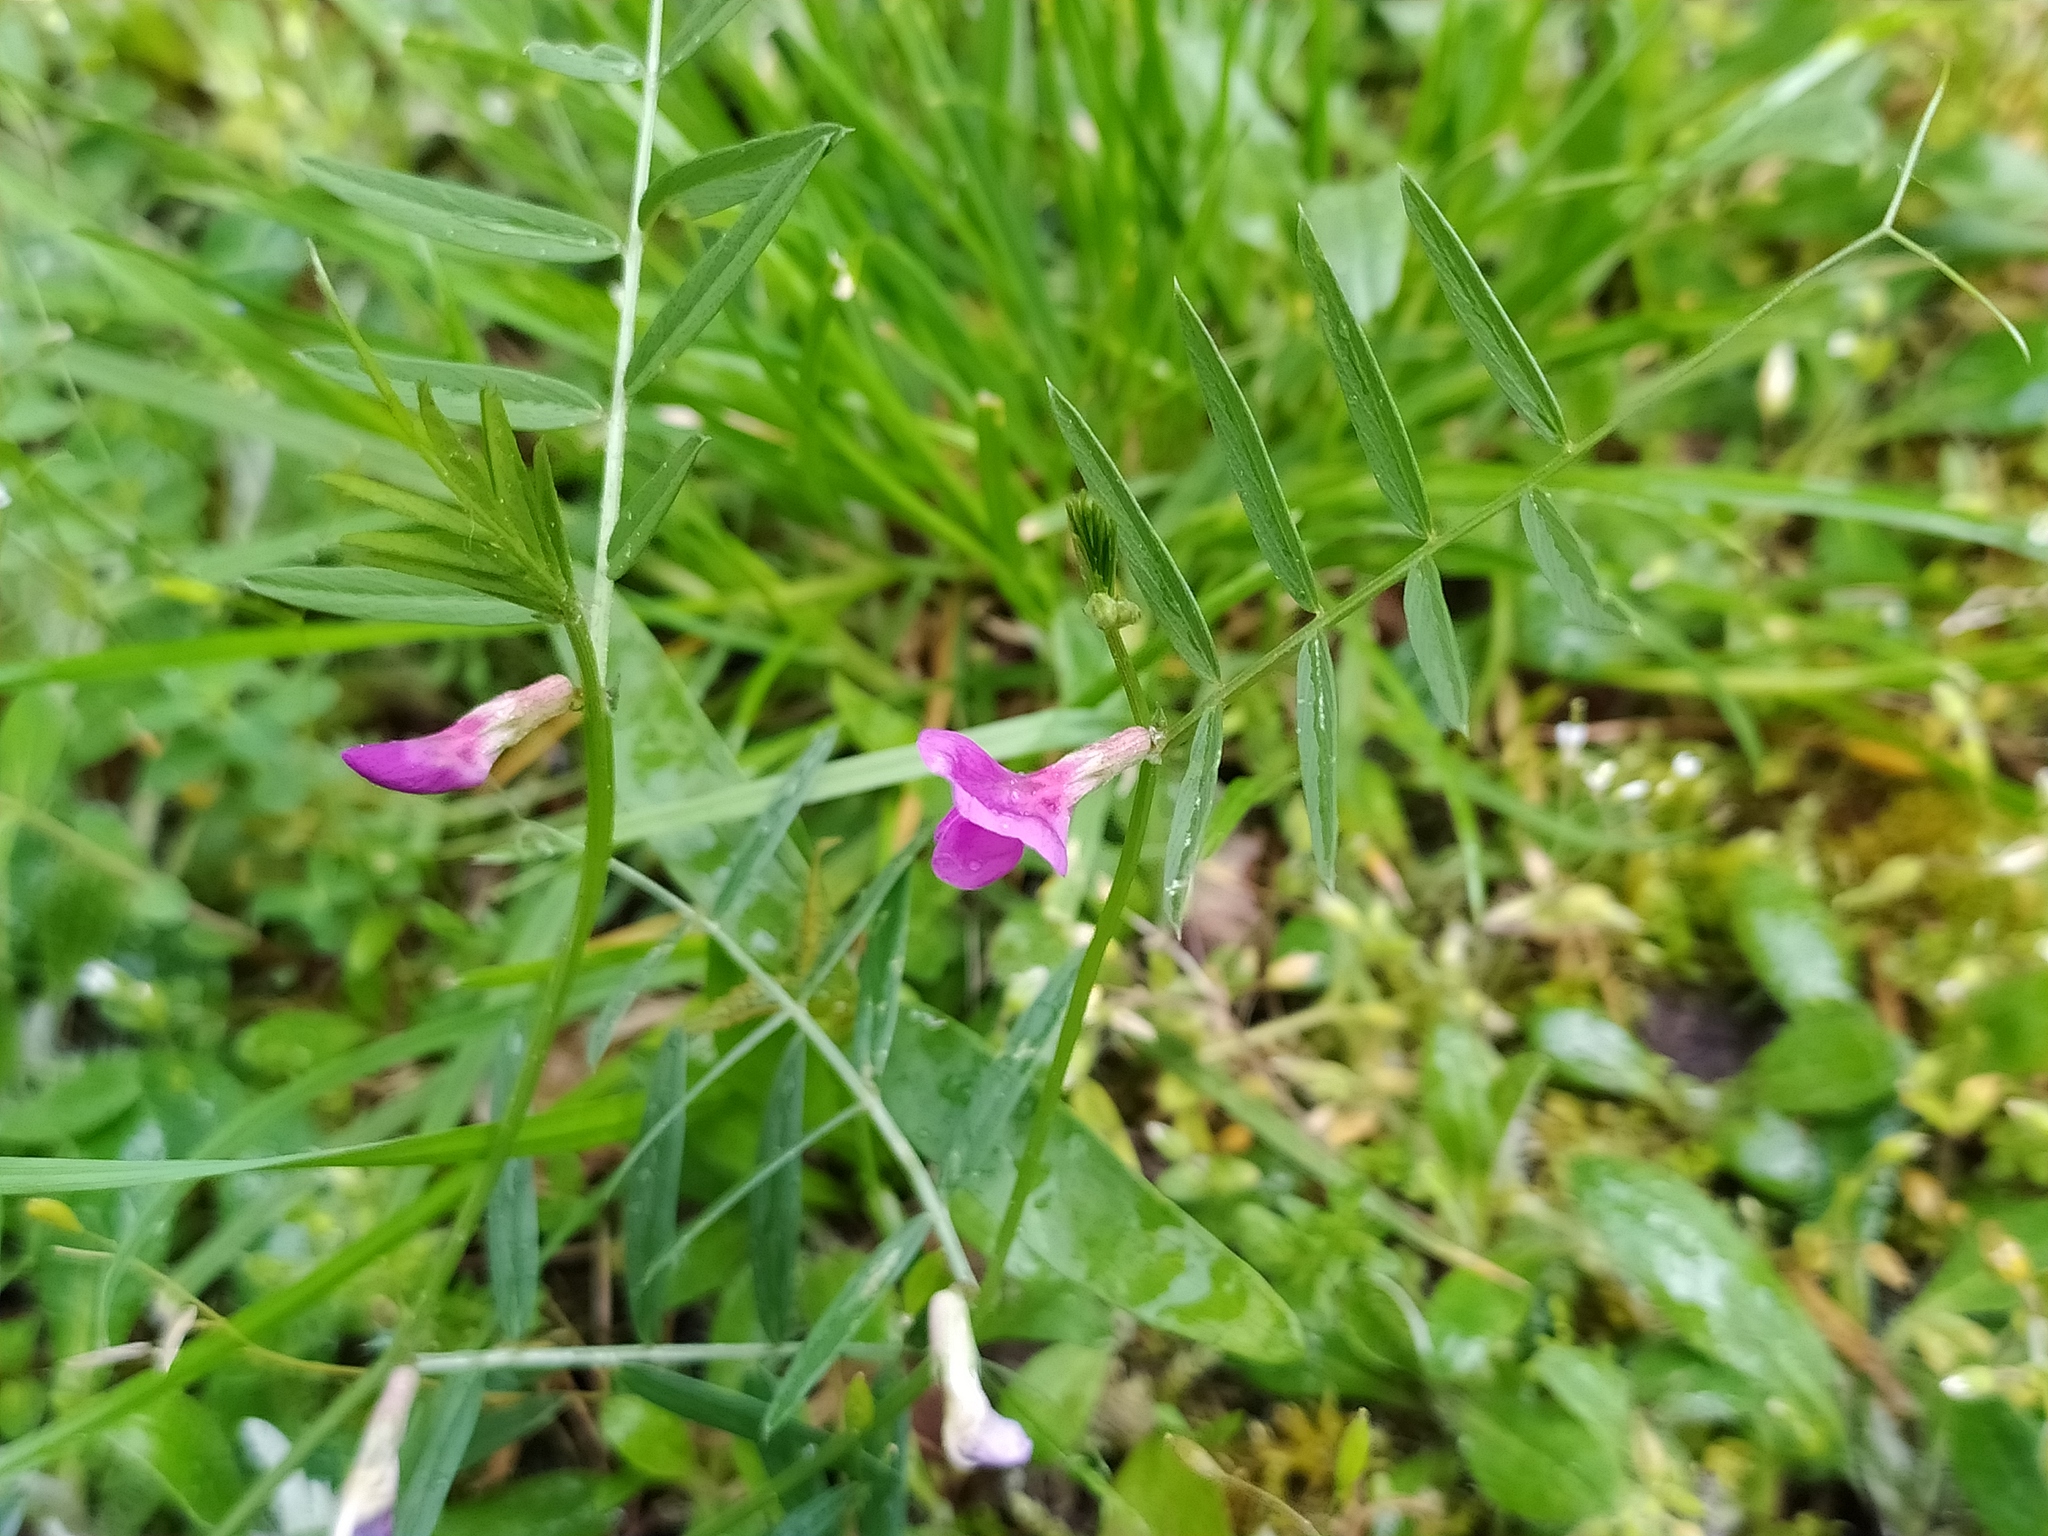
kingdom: Plantae
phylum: Tracheophyta
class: Magnoliopsida
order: Fabales
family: Fabaceae
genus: Vicia
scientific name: Vicia sativa
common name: Garden vetch
